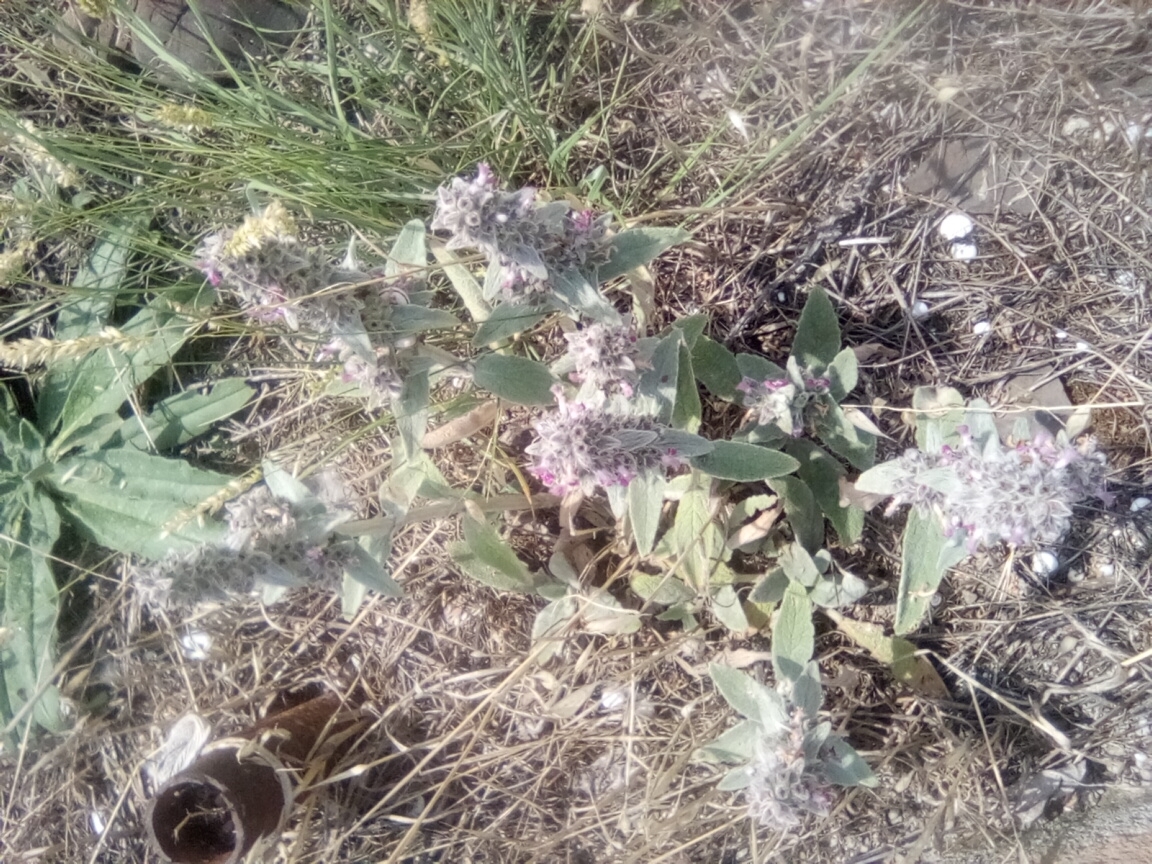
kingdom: Plantae
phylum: Tracheophyta
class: Magnoliopsida
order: Lamiales
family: Lamiaceae
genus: Stachys
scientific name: Stachys cretica
